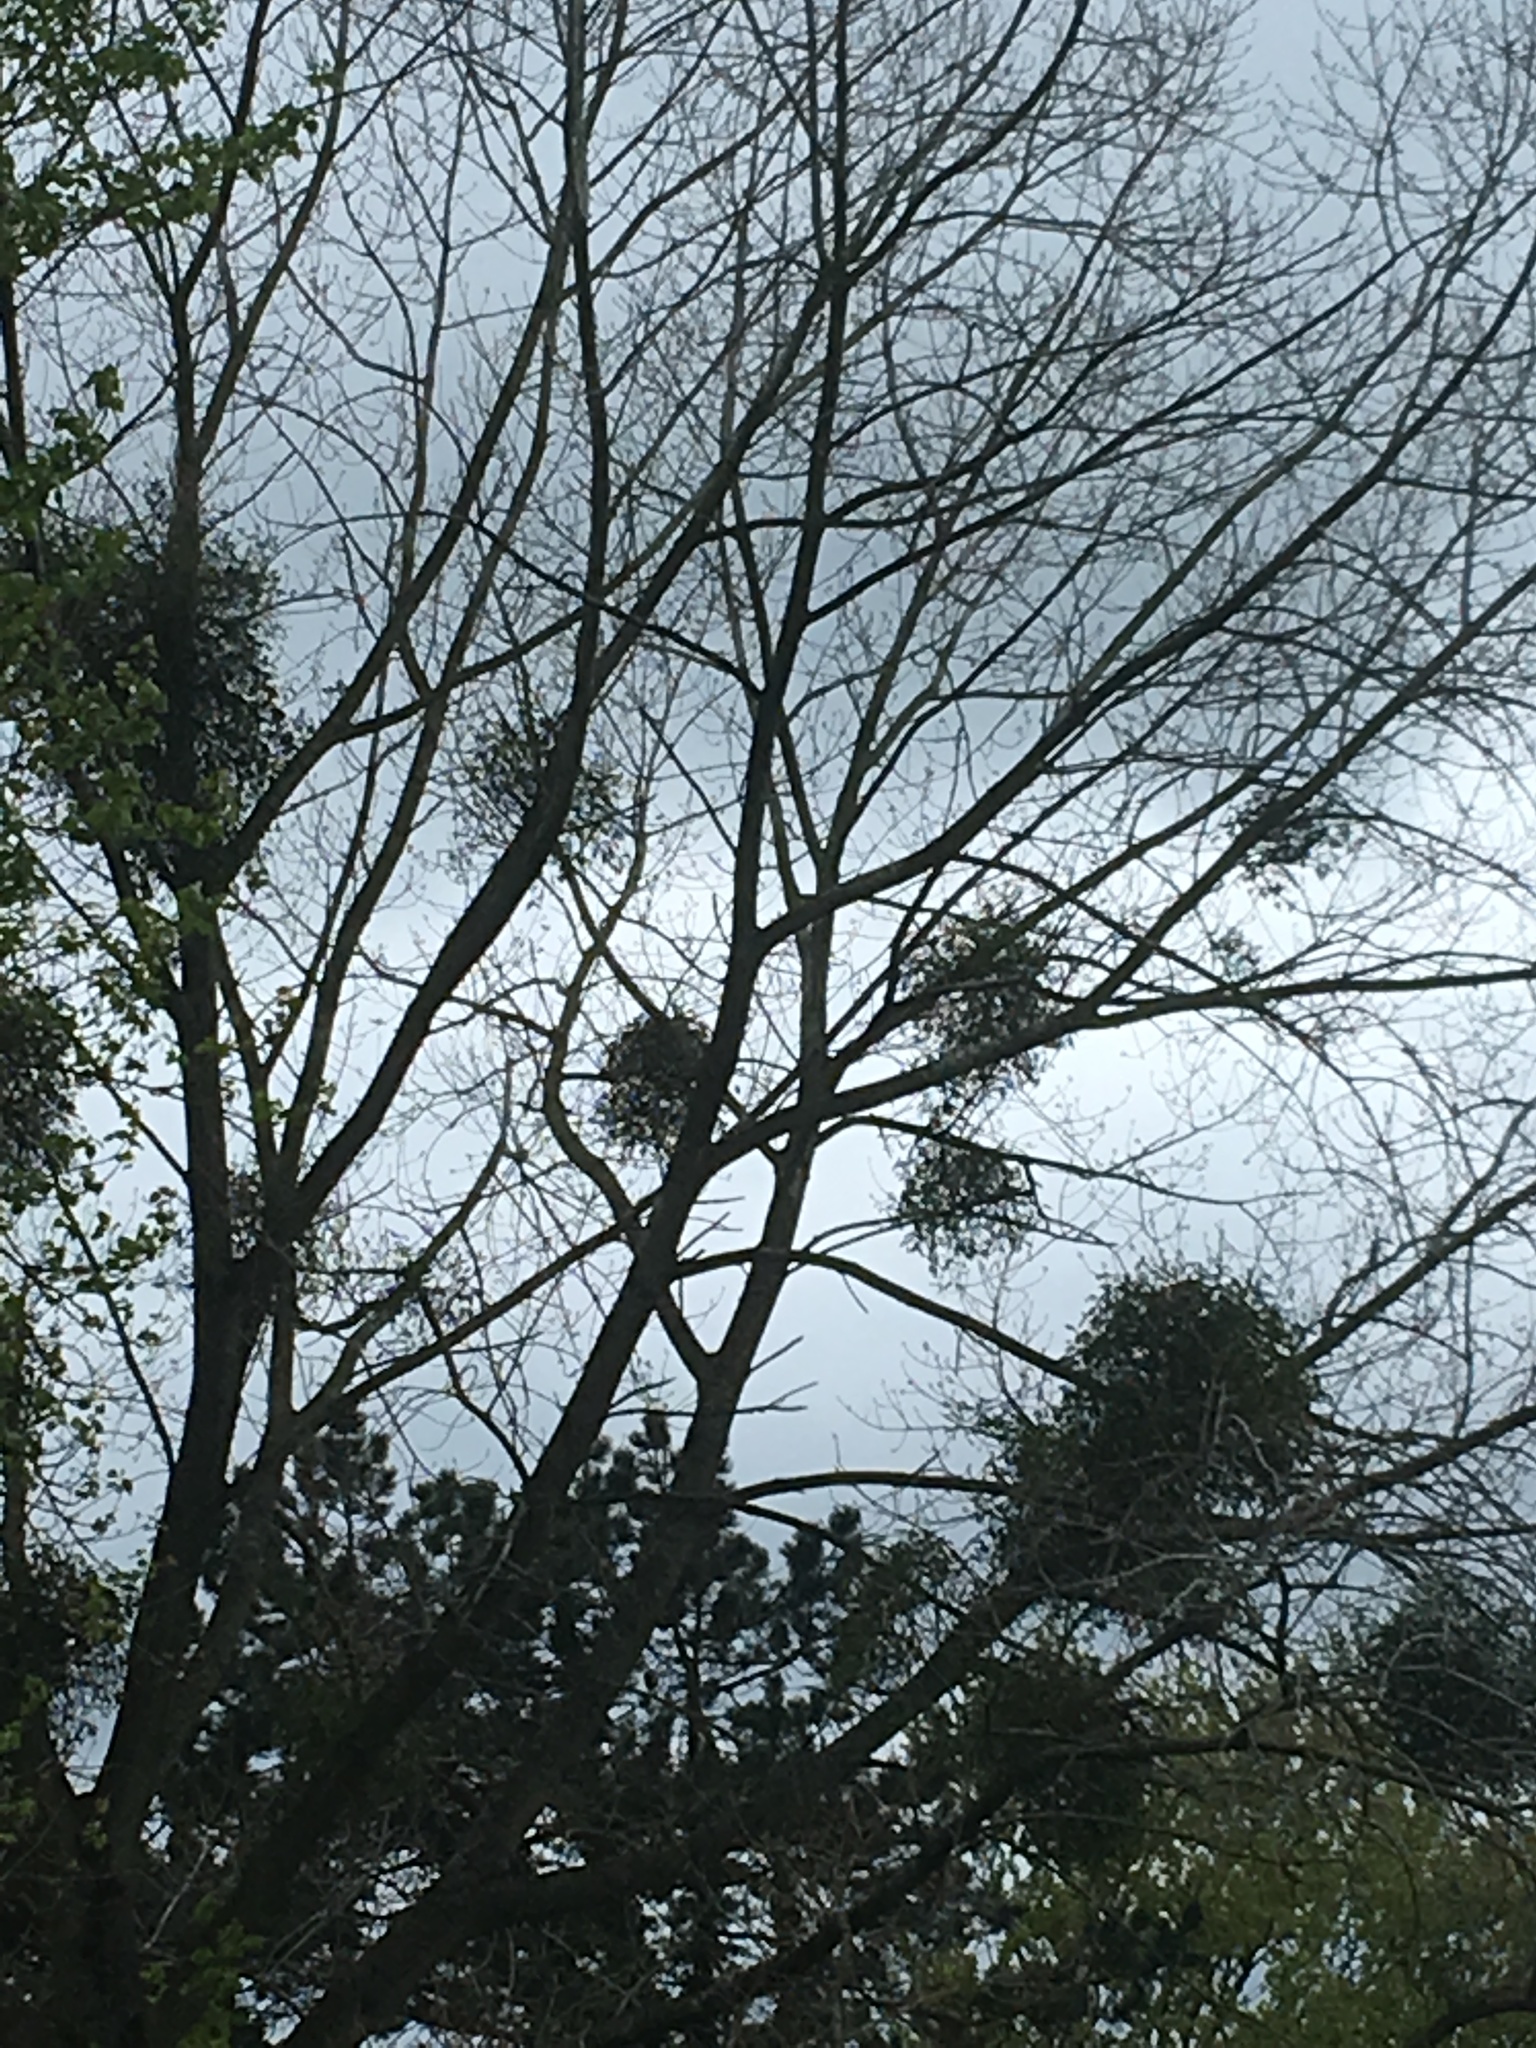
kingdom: Plantae
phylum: Tracheophyta
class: Magnoliopsida
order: Santalales
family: Viscaceae
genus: Viscum
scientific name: Viscum album
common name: Mistletoe
